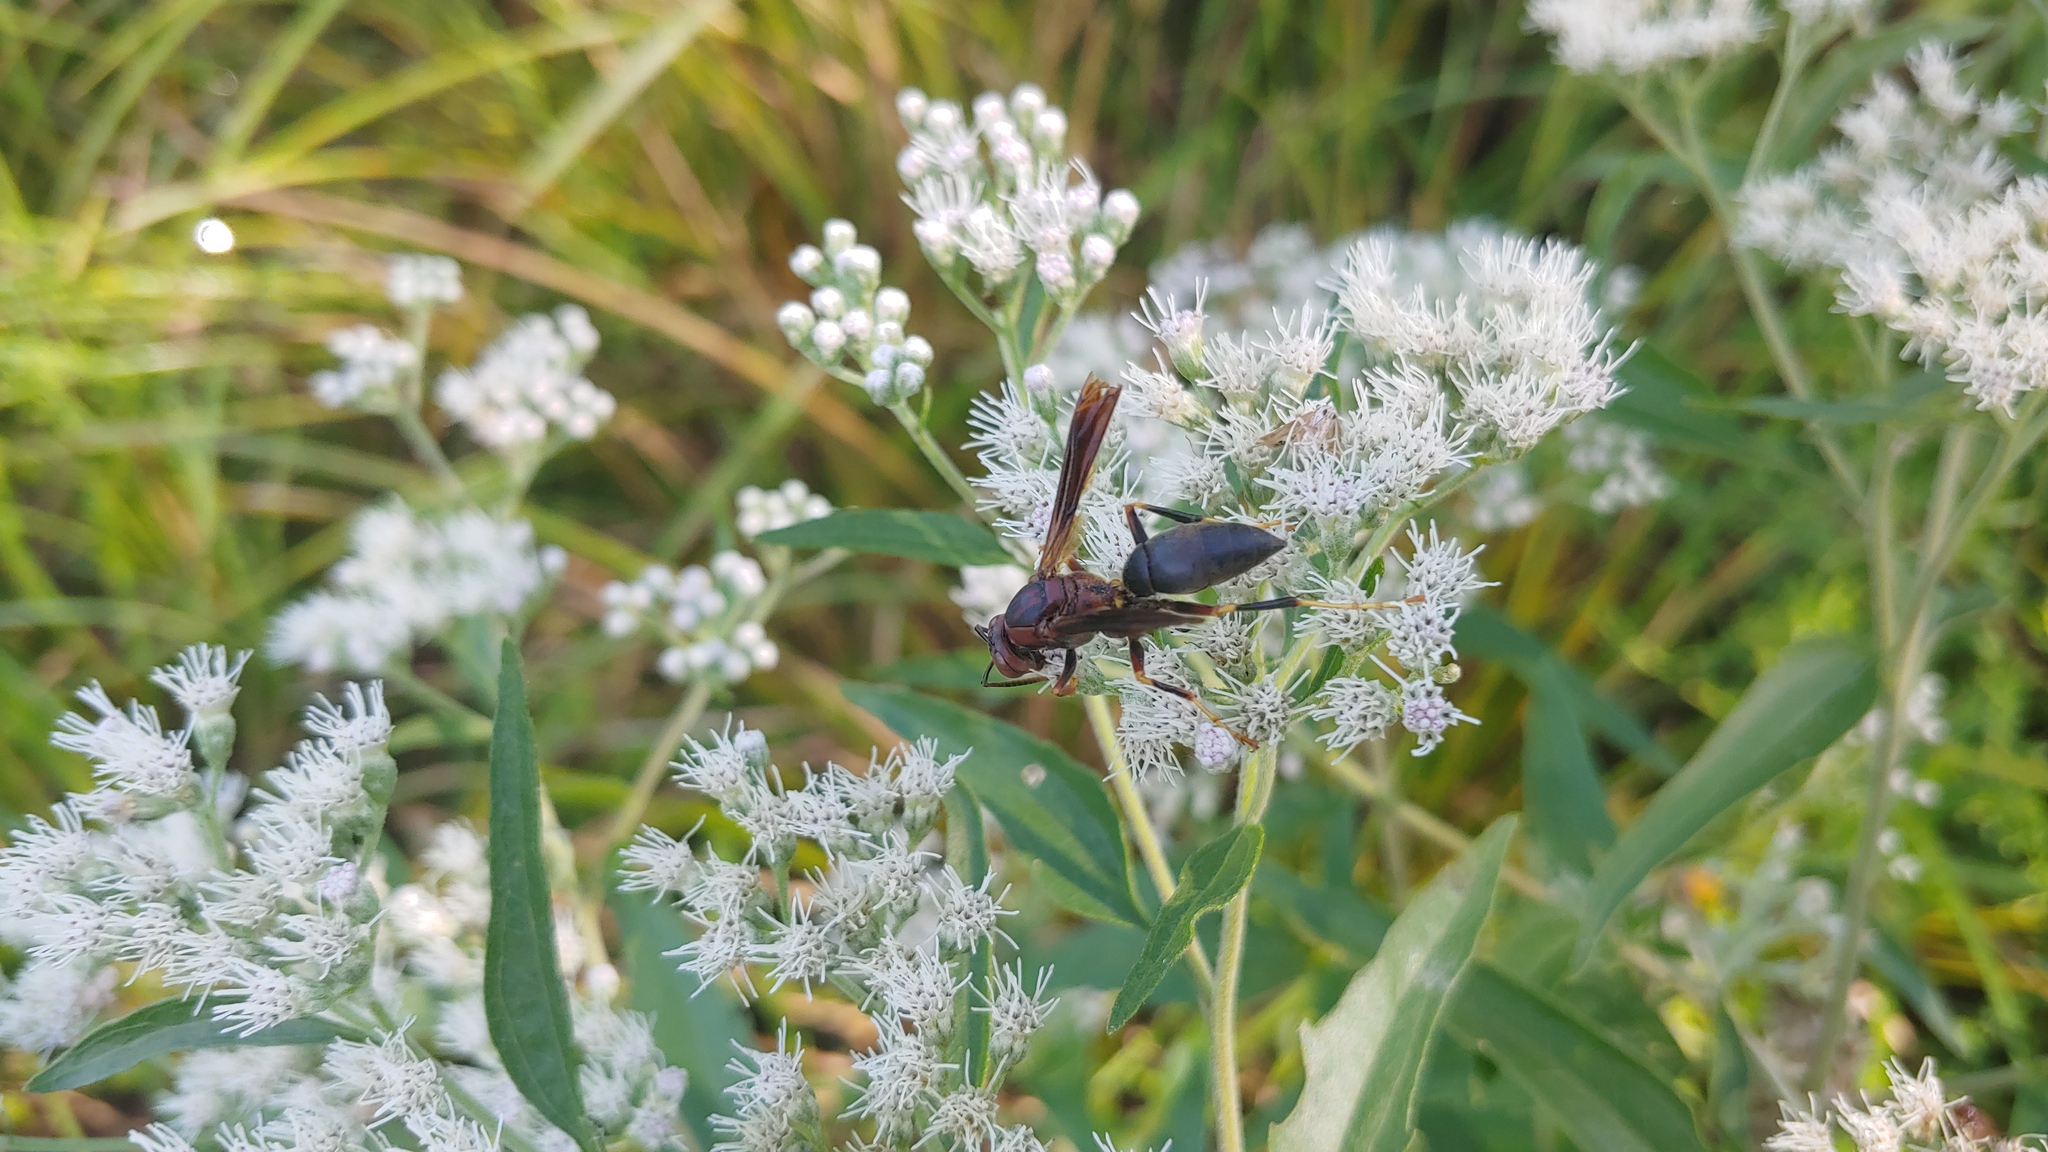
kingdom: Animalia
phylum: Arthropoda
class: Insecta
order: Hymenoptera
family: Eumenidae
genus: Polistes
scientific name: Polistes metricus
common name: Metric paper wasp
